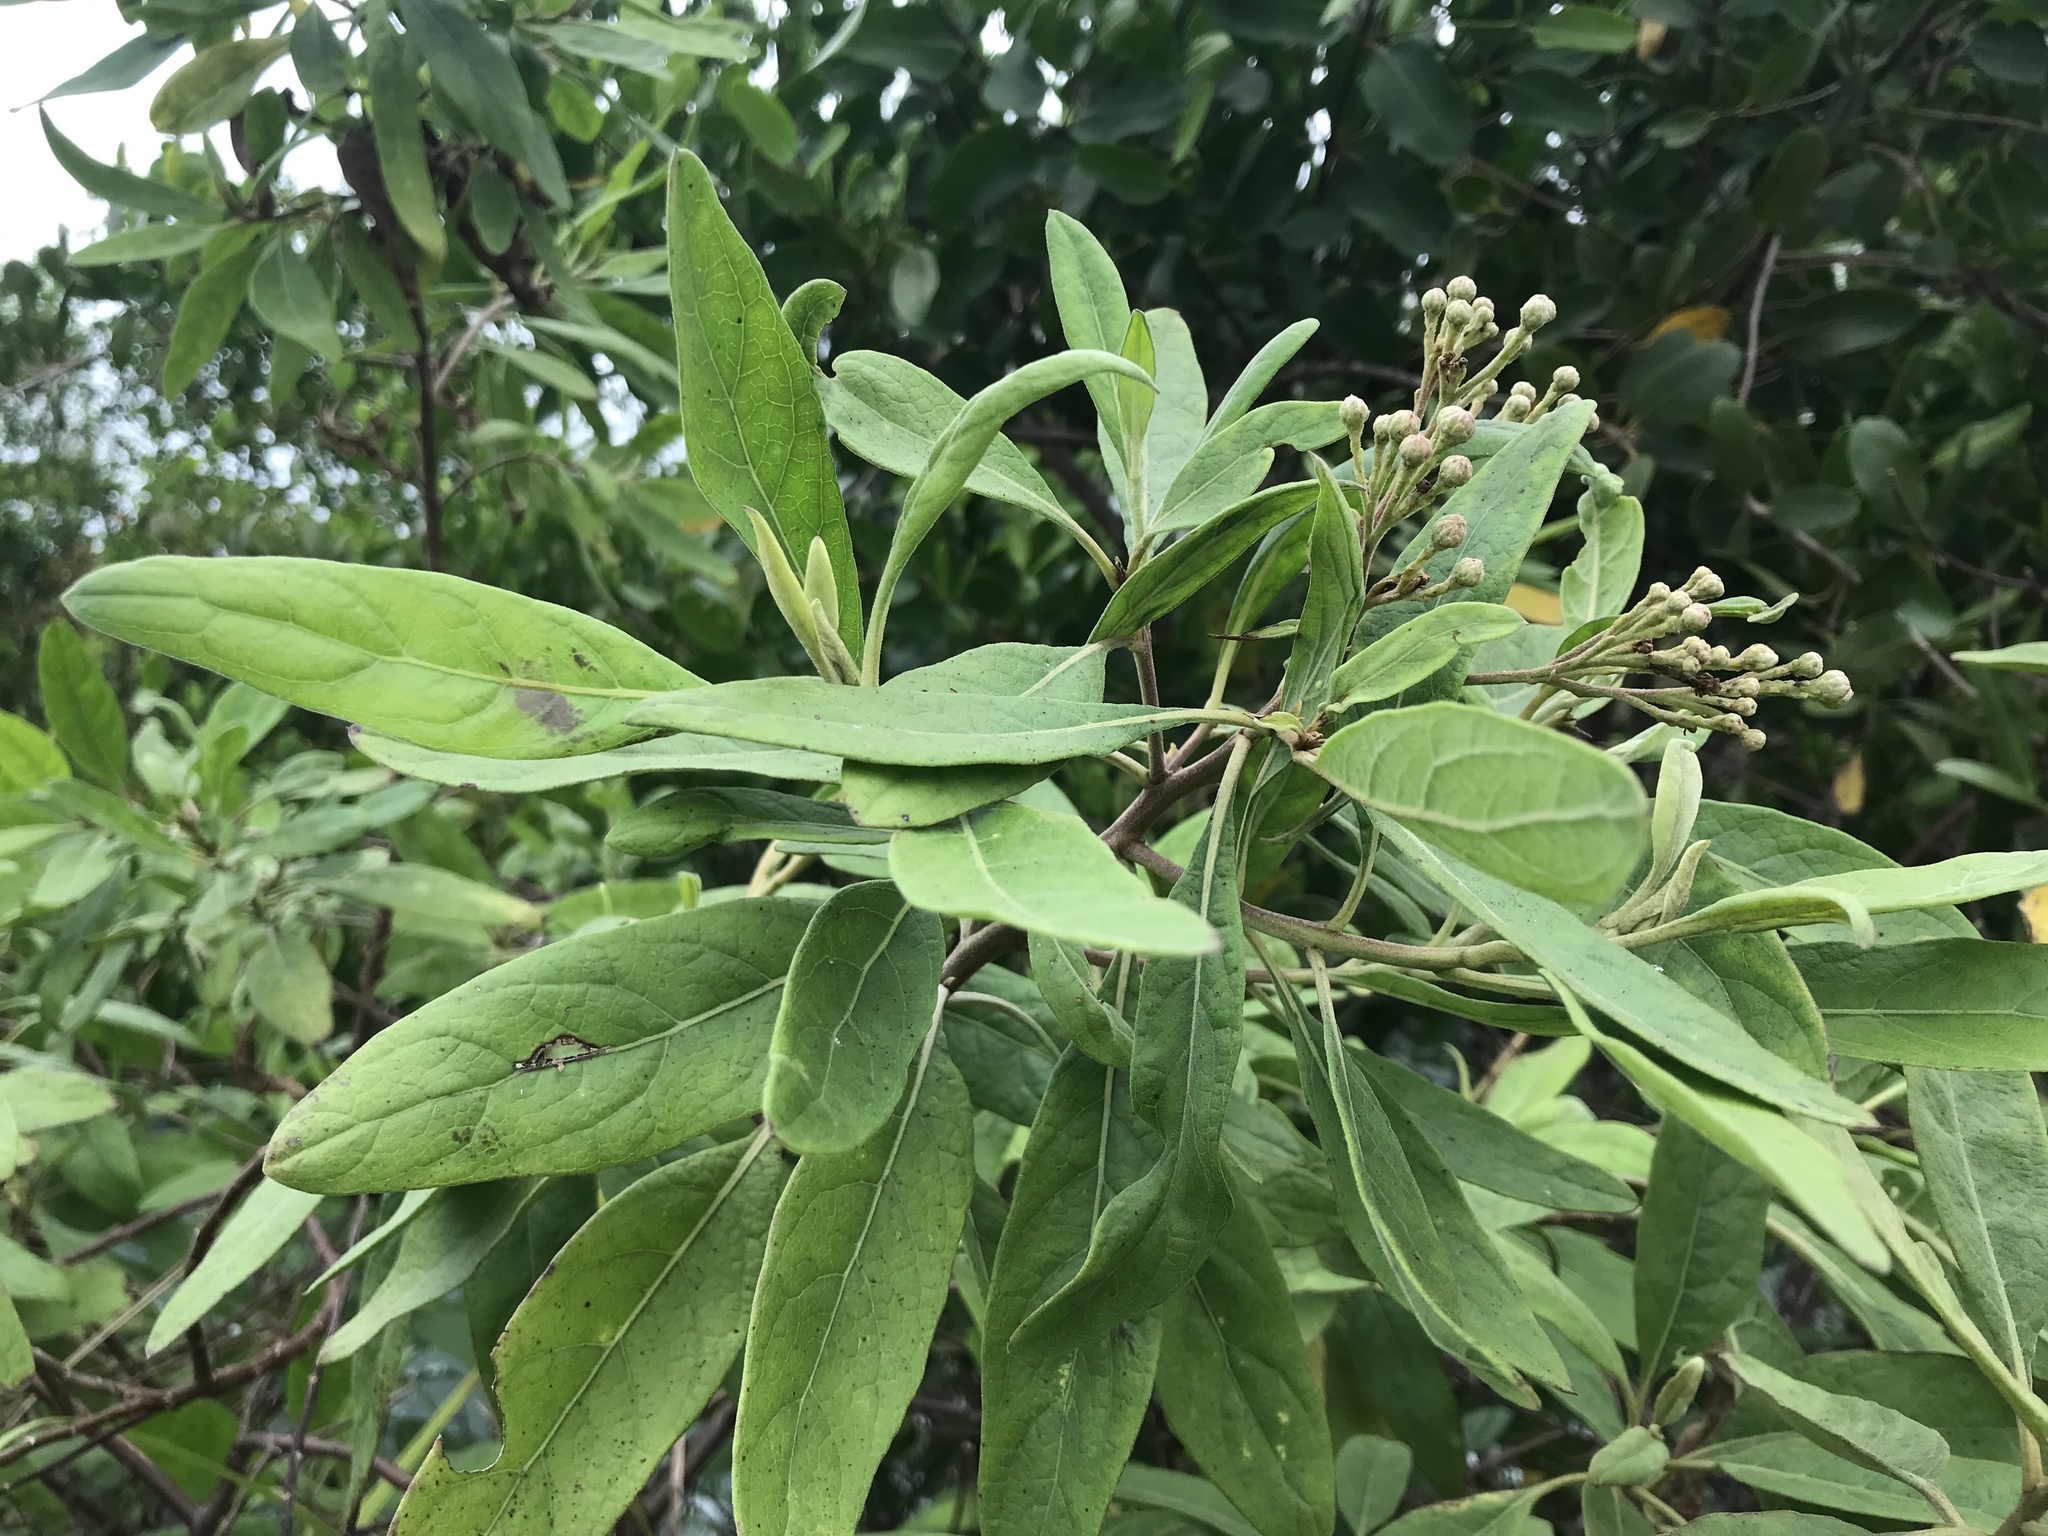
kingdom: Plantae
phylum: Tracheophyta
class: Magnoliopsida
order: Asterales
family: Asteraceae
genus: Pluchea
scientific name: Pluchea carolinensis
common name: Marsh fleabane
